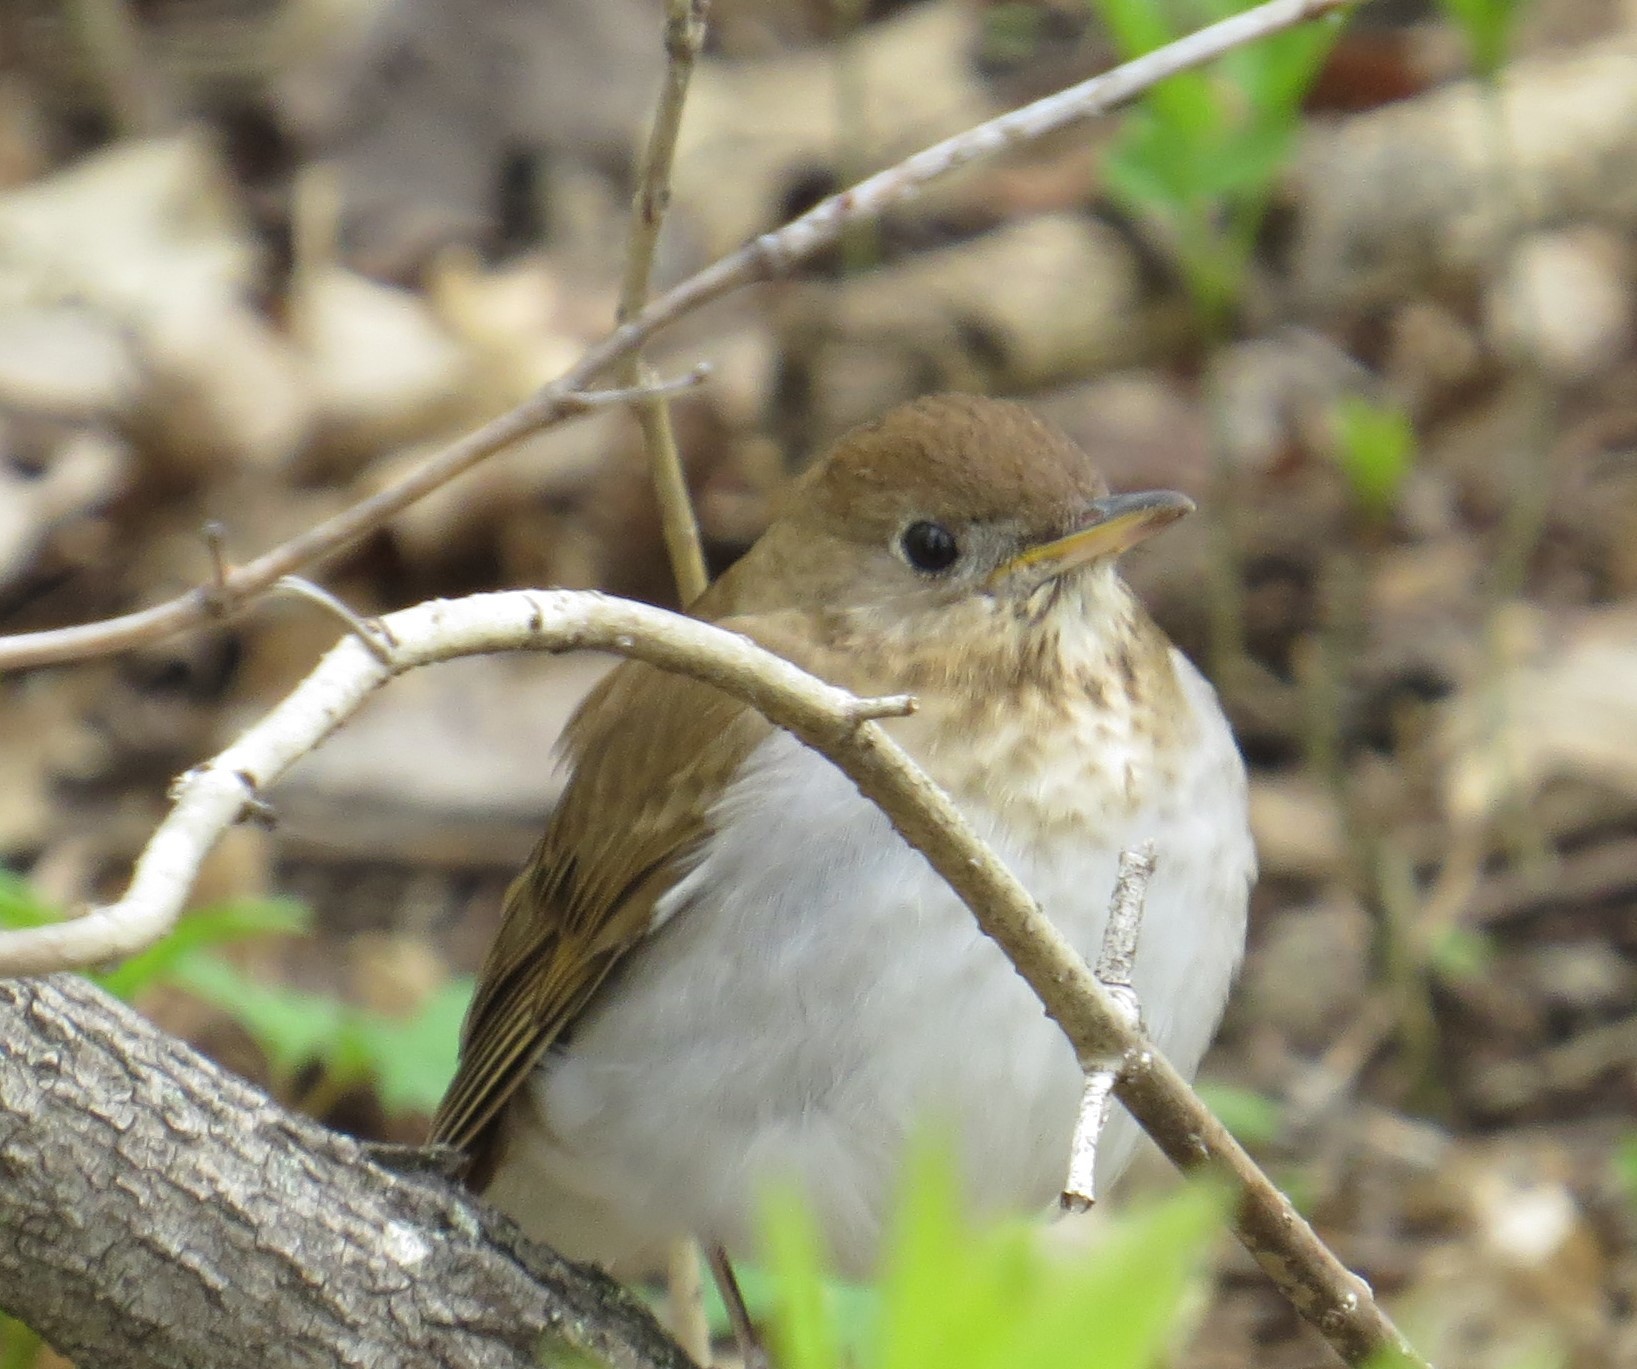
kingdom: Animalia
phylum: Chordata
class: Aves
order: Passeriformes
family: Turdidae
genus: Catharus
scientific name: Catharus fuscescens
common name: Veery
